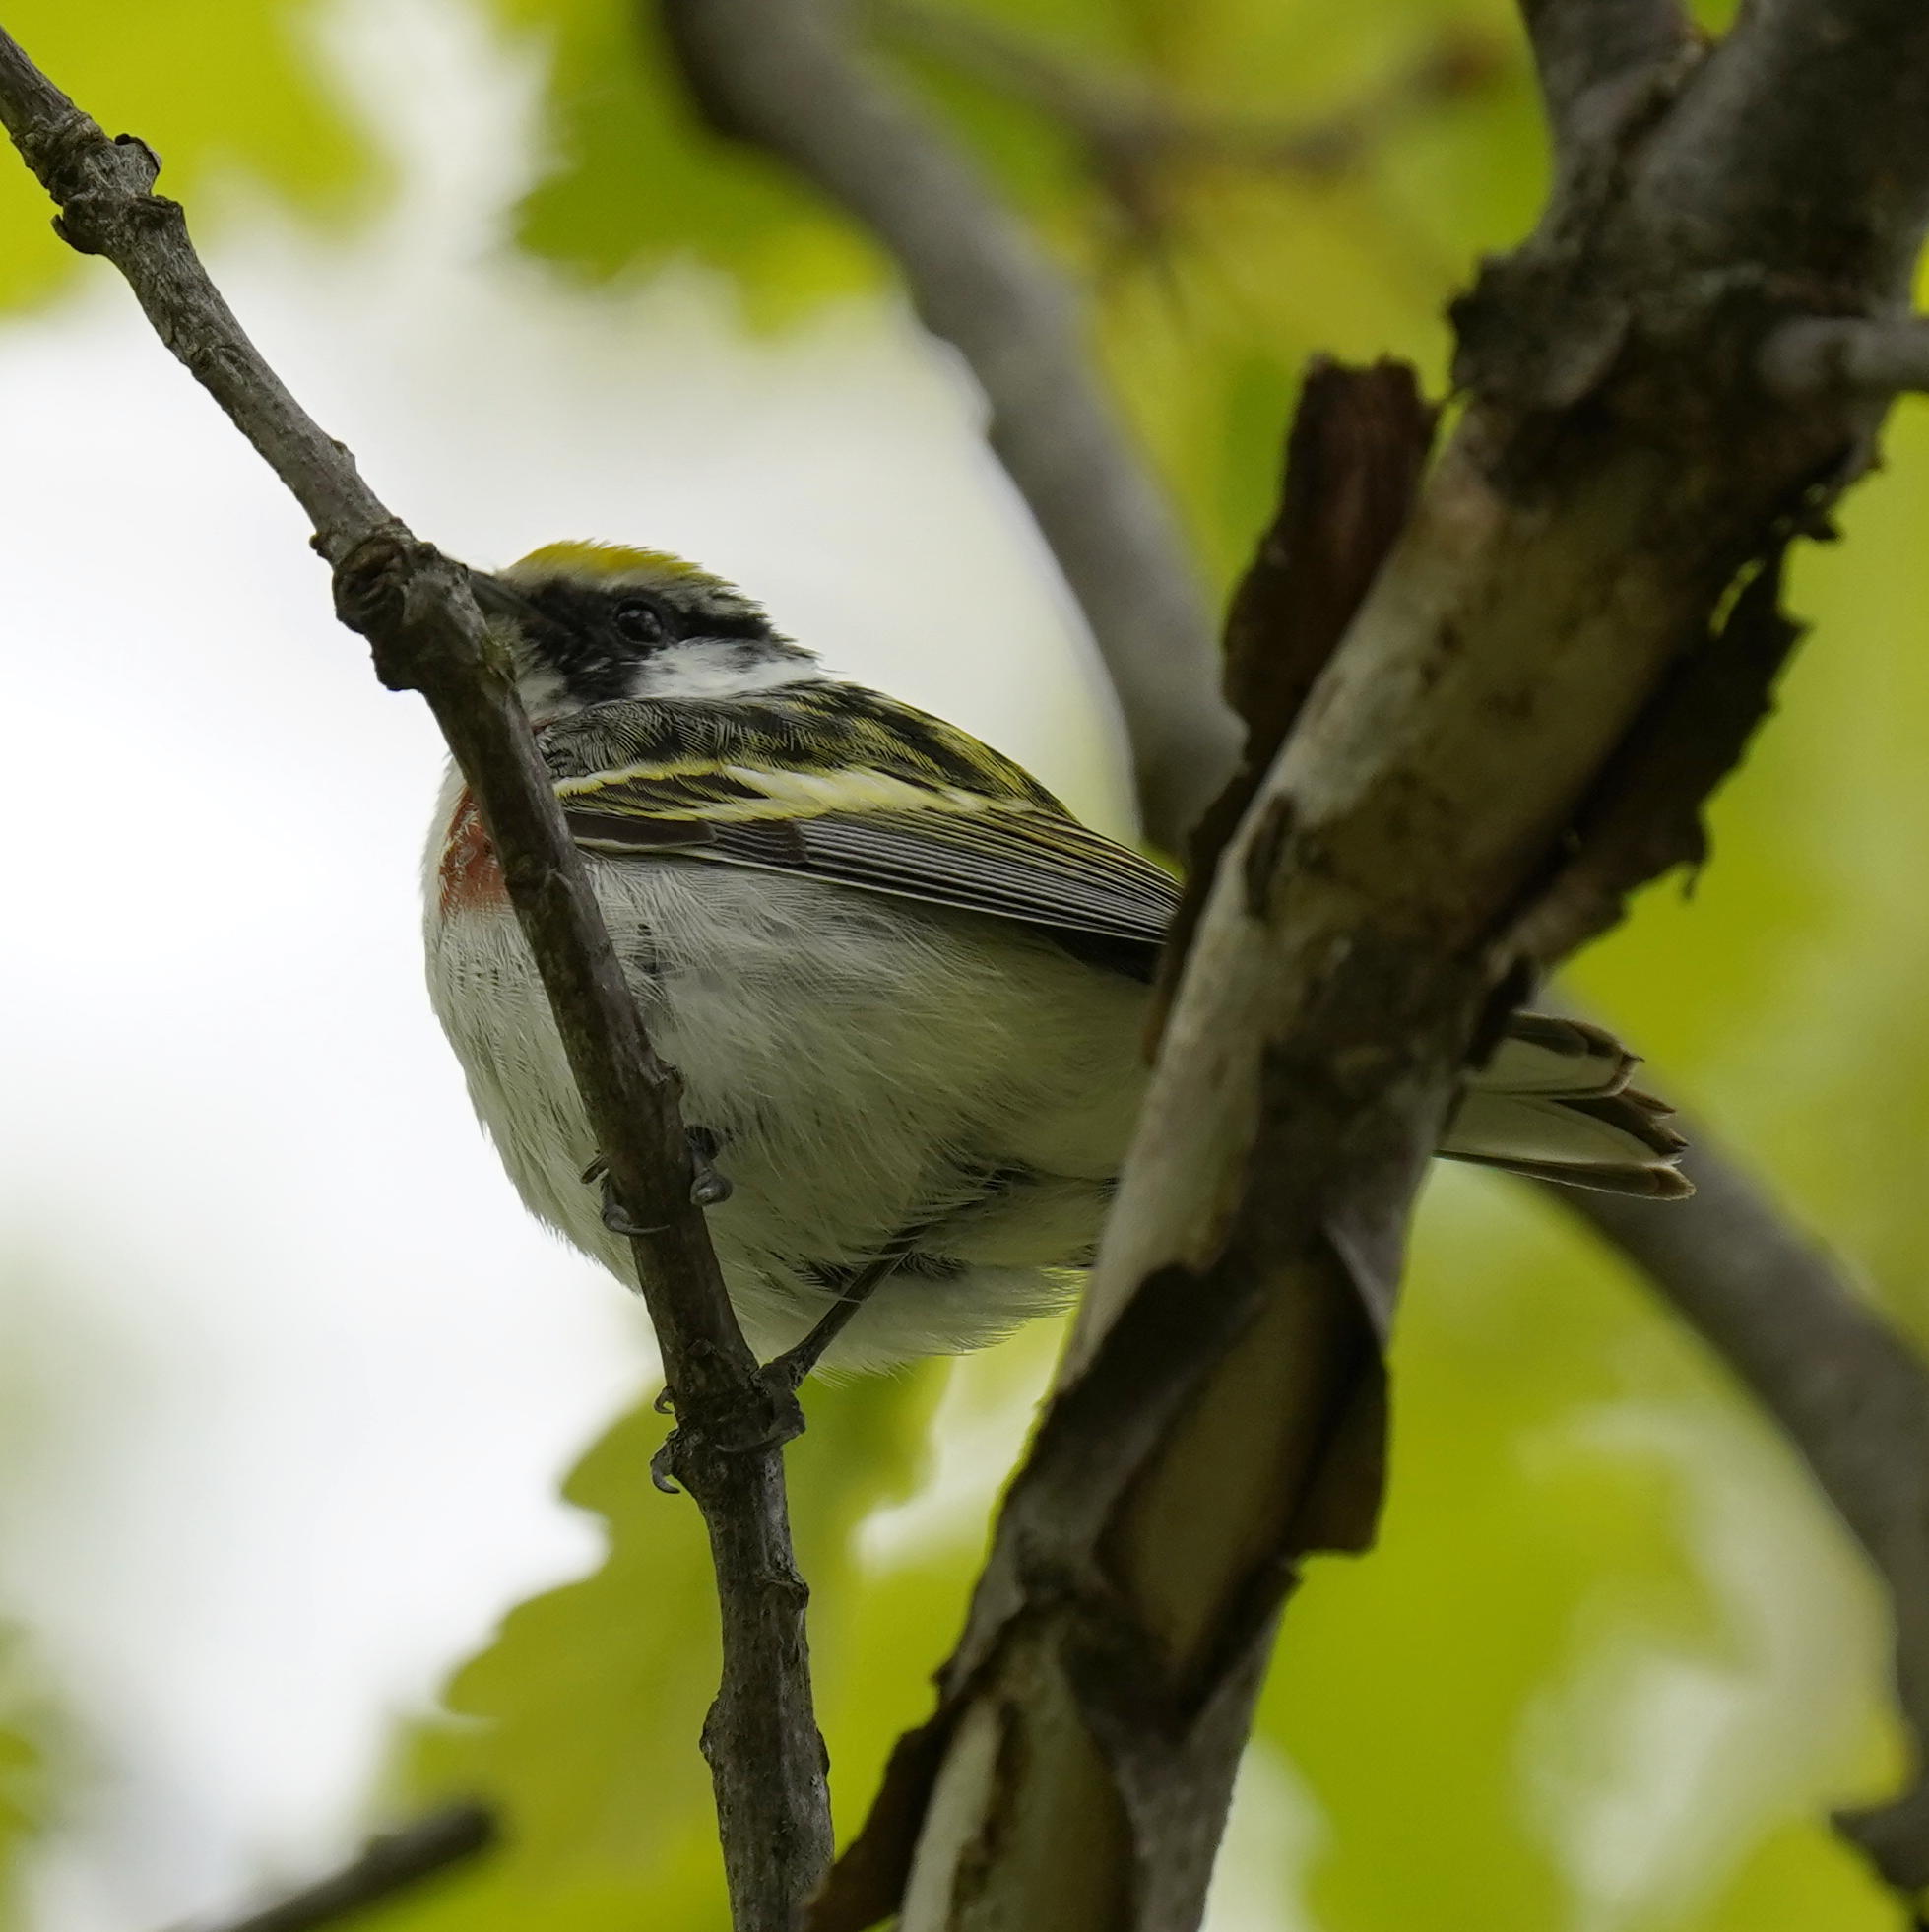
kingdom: Animalia
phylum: Chordata
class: Aves
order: Passeriformes
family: Parulidae
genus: Setophaga
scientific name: Setophaga pensylvanica
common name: Chestnut-sided warbler
